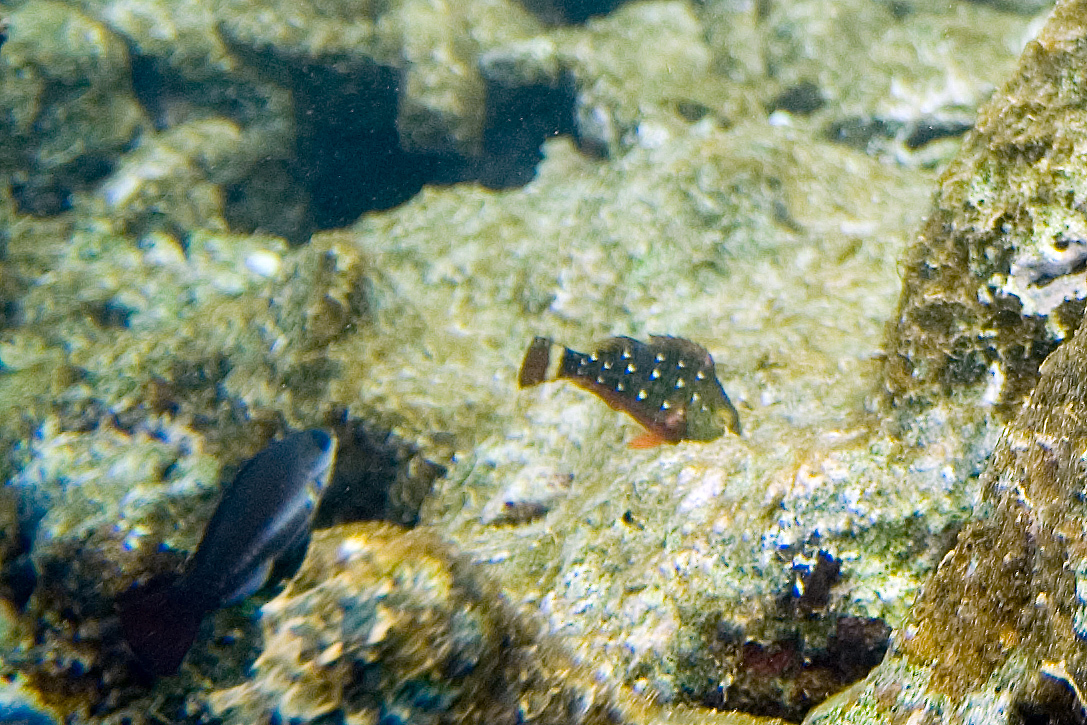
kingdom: Animalia
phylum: Chordata
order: Perciformes
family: Scaridae
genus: Sparisoma
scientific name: Sparisoma viride
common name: Stoplight parrotfish
